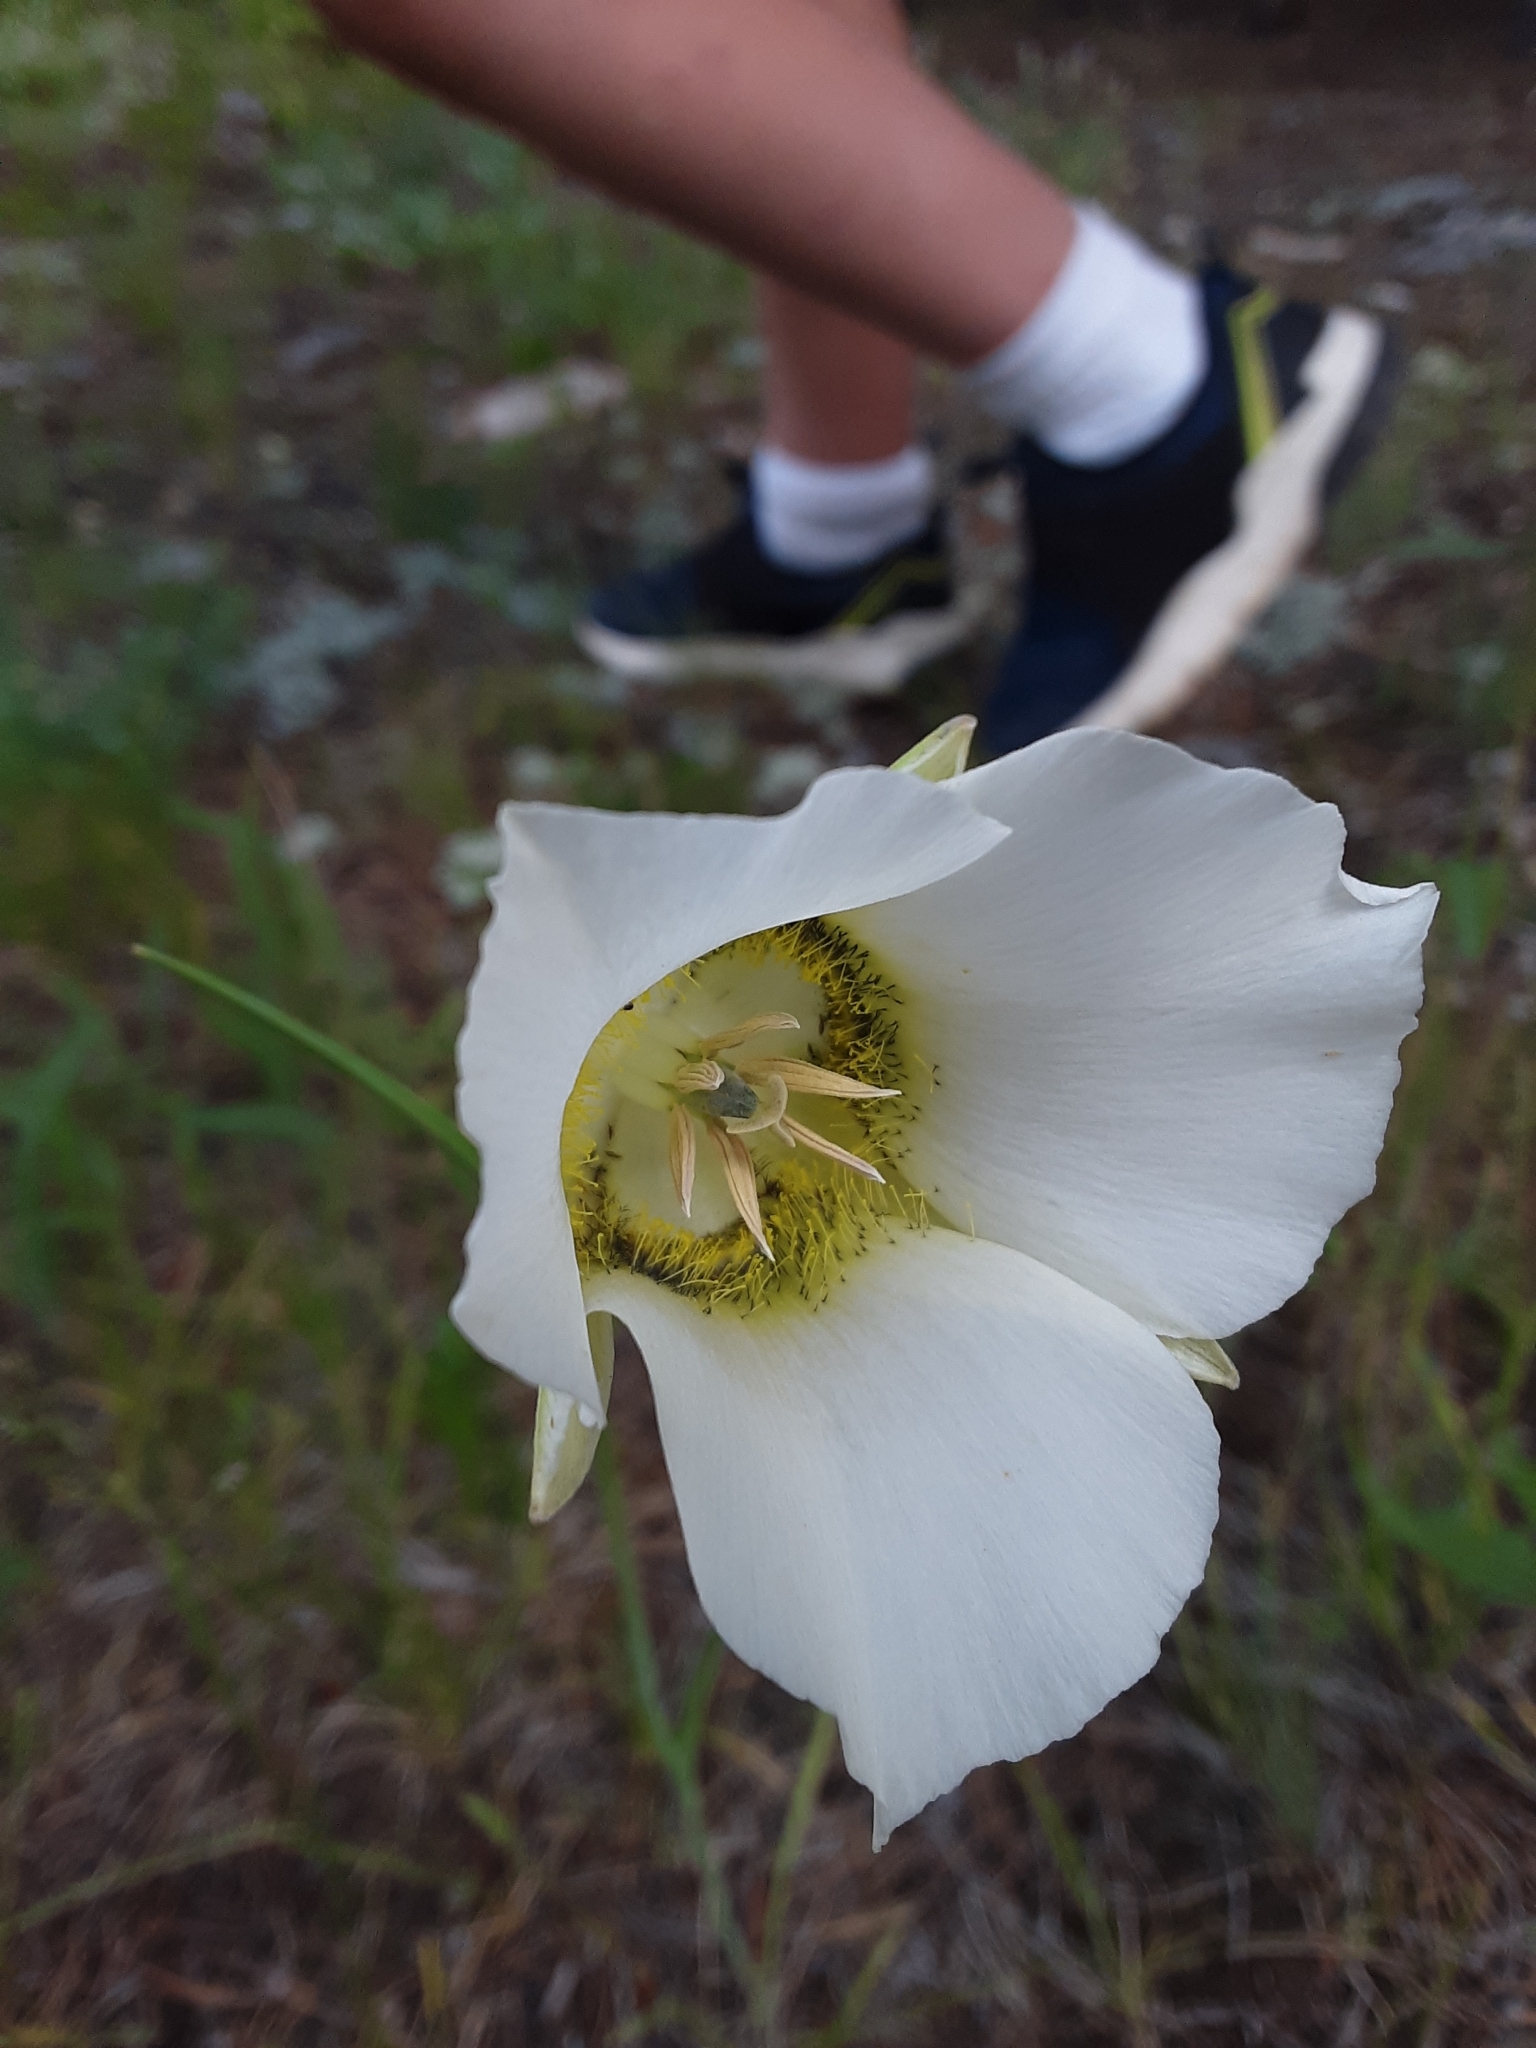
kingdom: Plantae
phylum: Tracheophyta
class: Liliopsida
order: Liliales
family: Liliaceae
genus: Calochortus
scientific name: Calochortus gunnisonii
